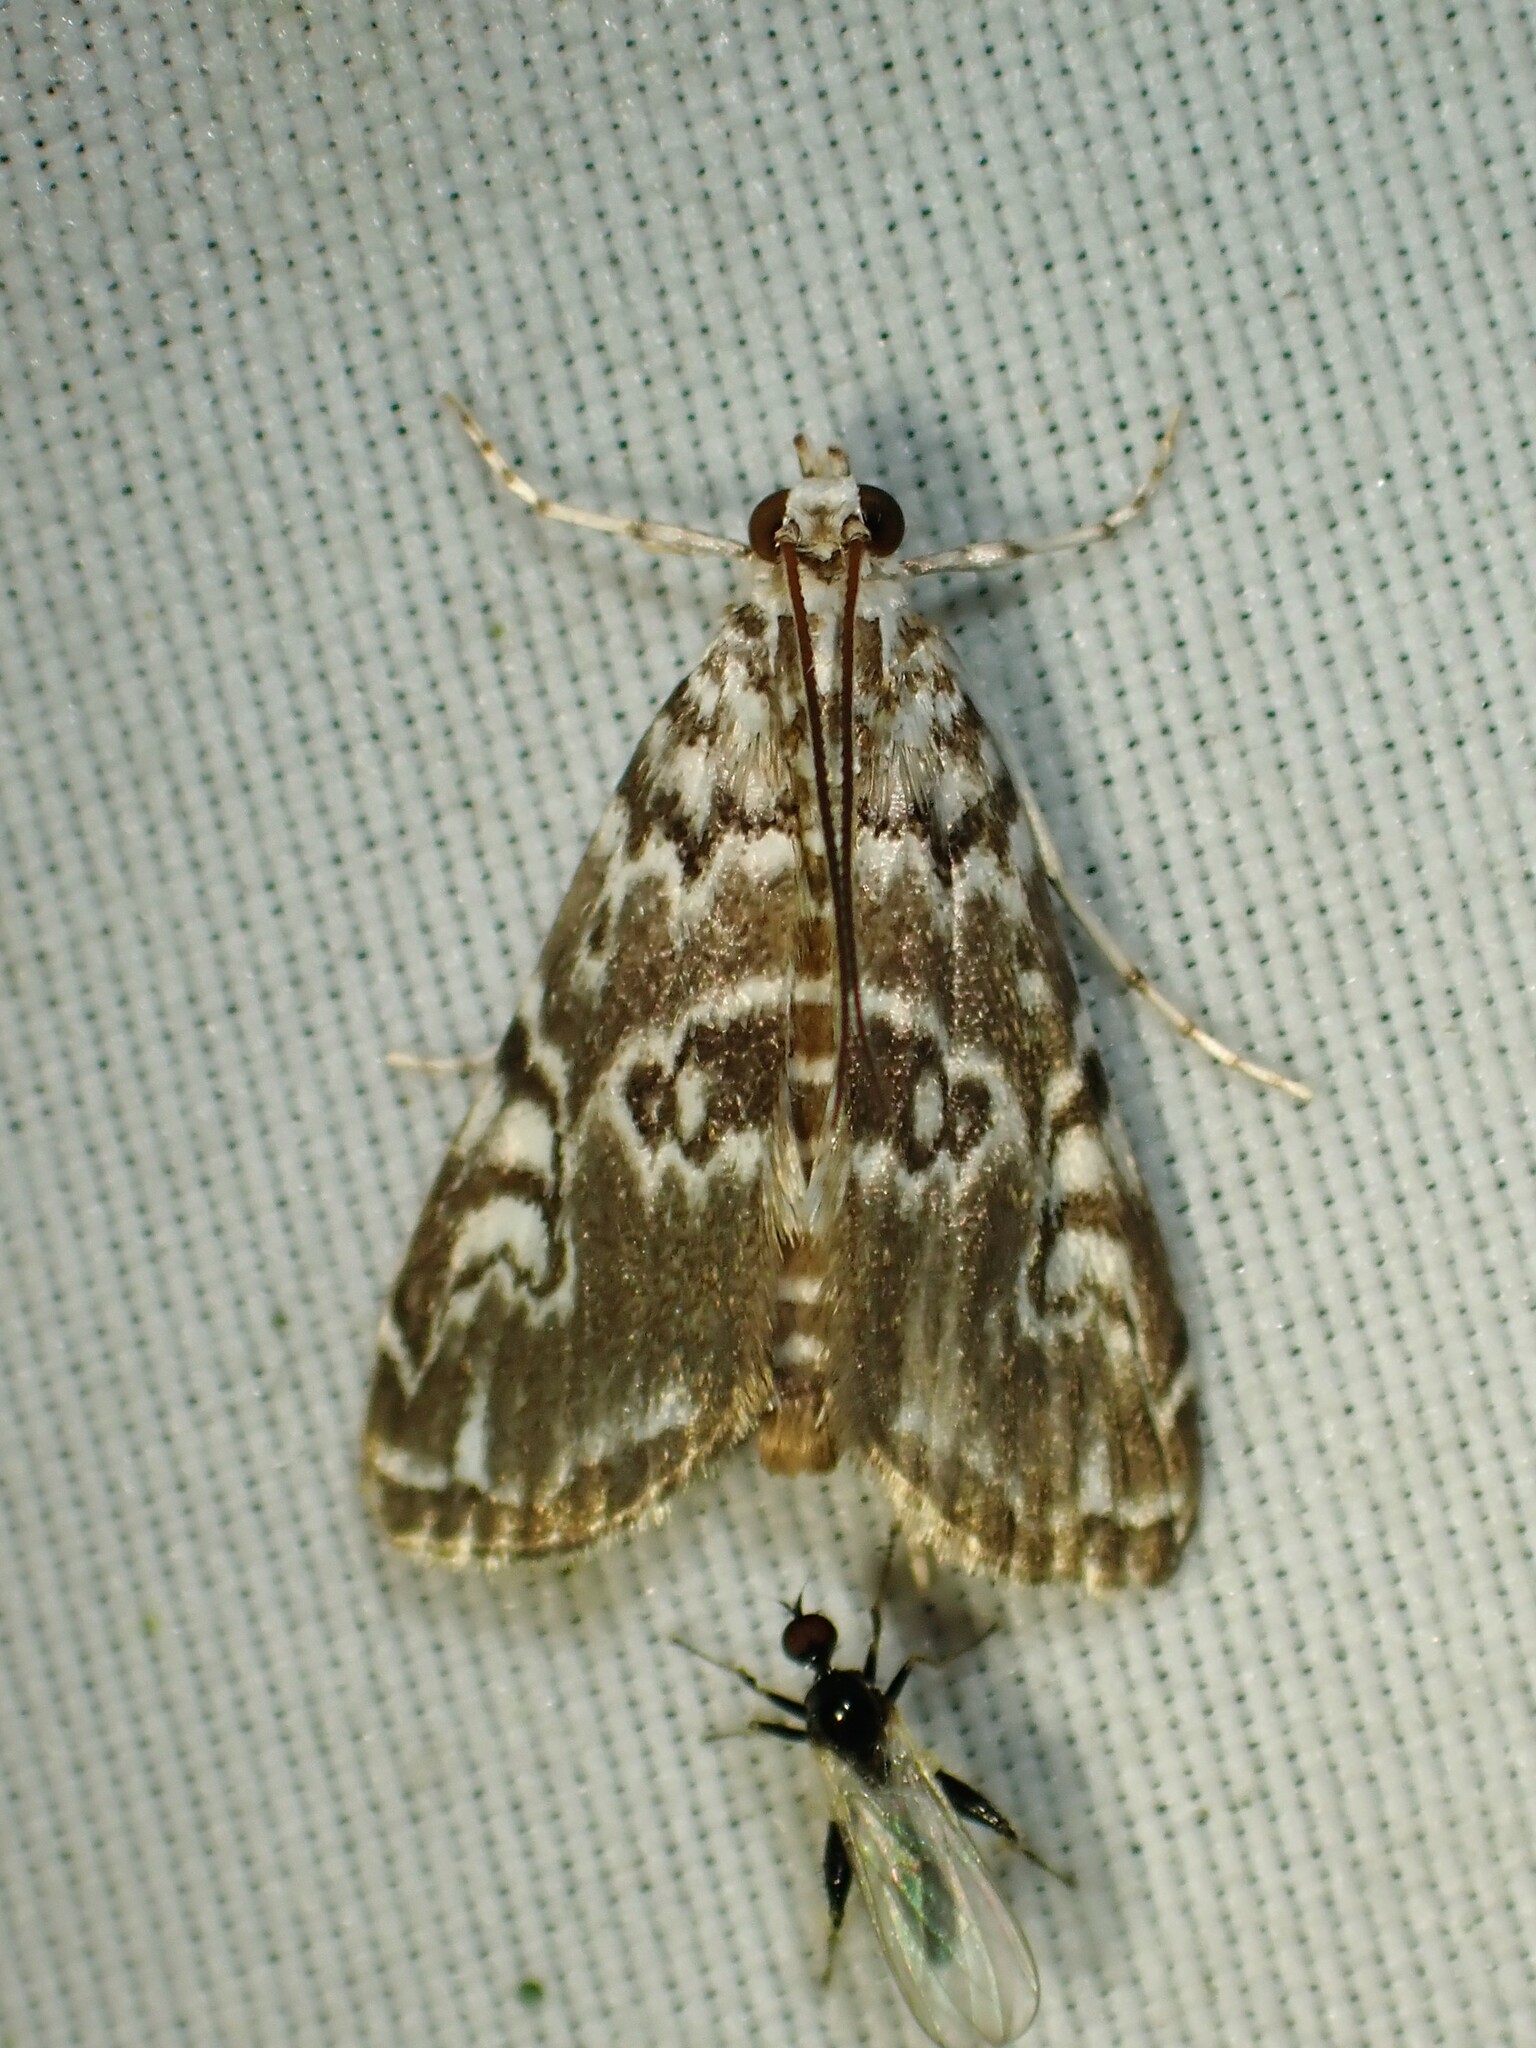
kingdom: Animalia
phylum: Arthropoda
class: Insecta
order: Lepidoptera
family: Crambidae
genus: Elophila
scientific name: Elophila gyralis
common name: Waterlily borer moth
